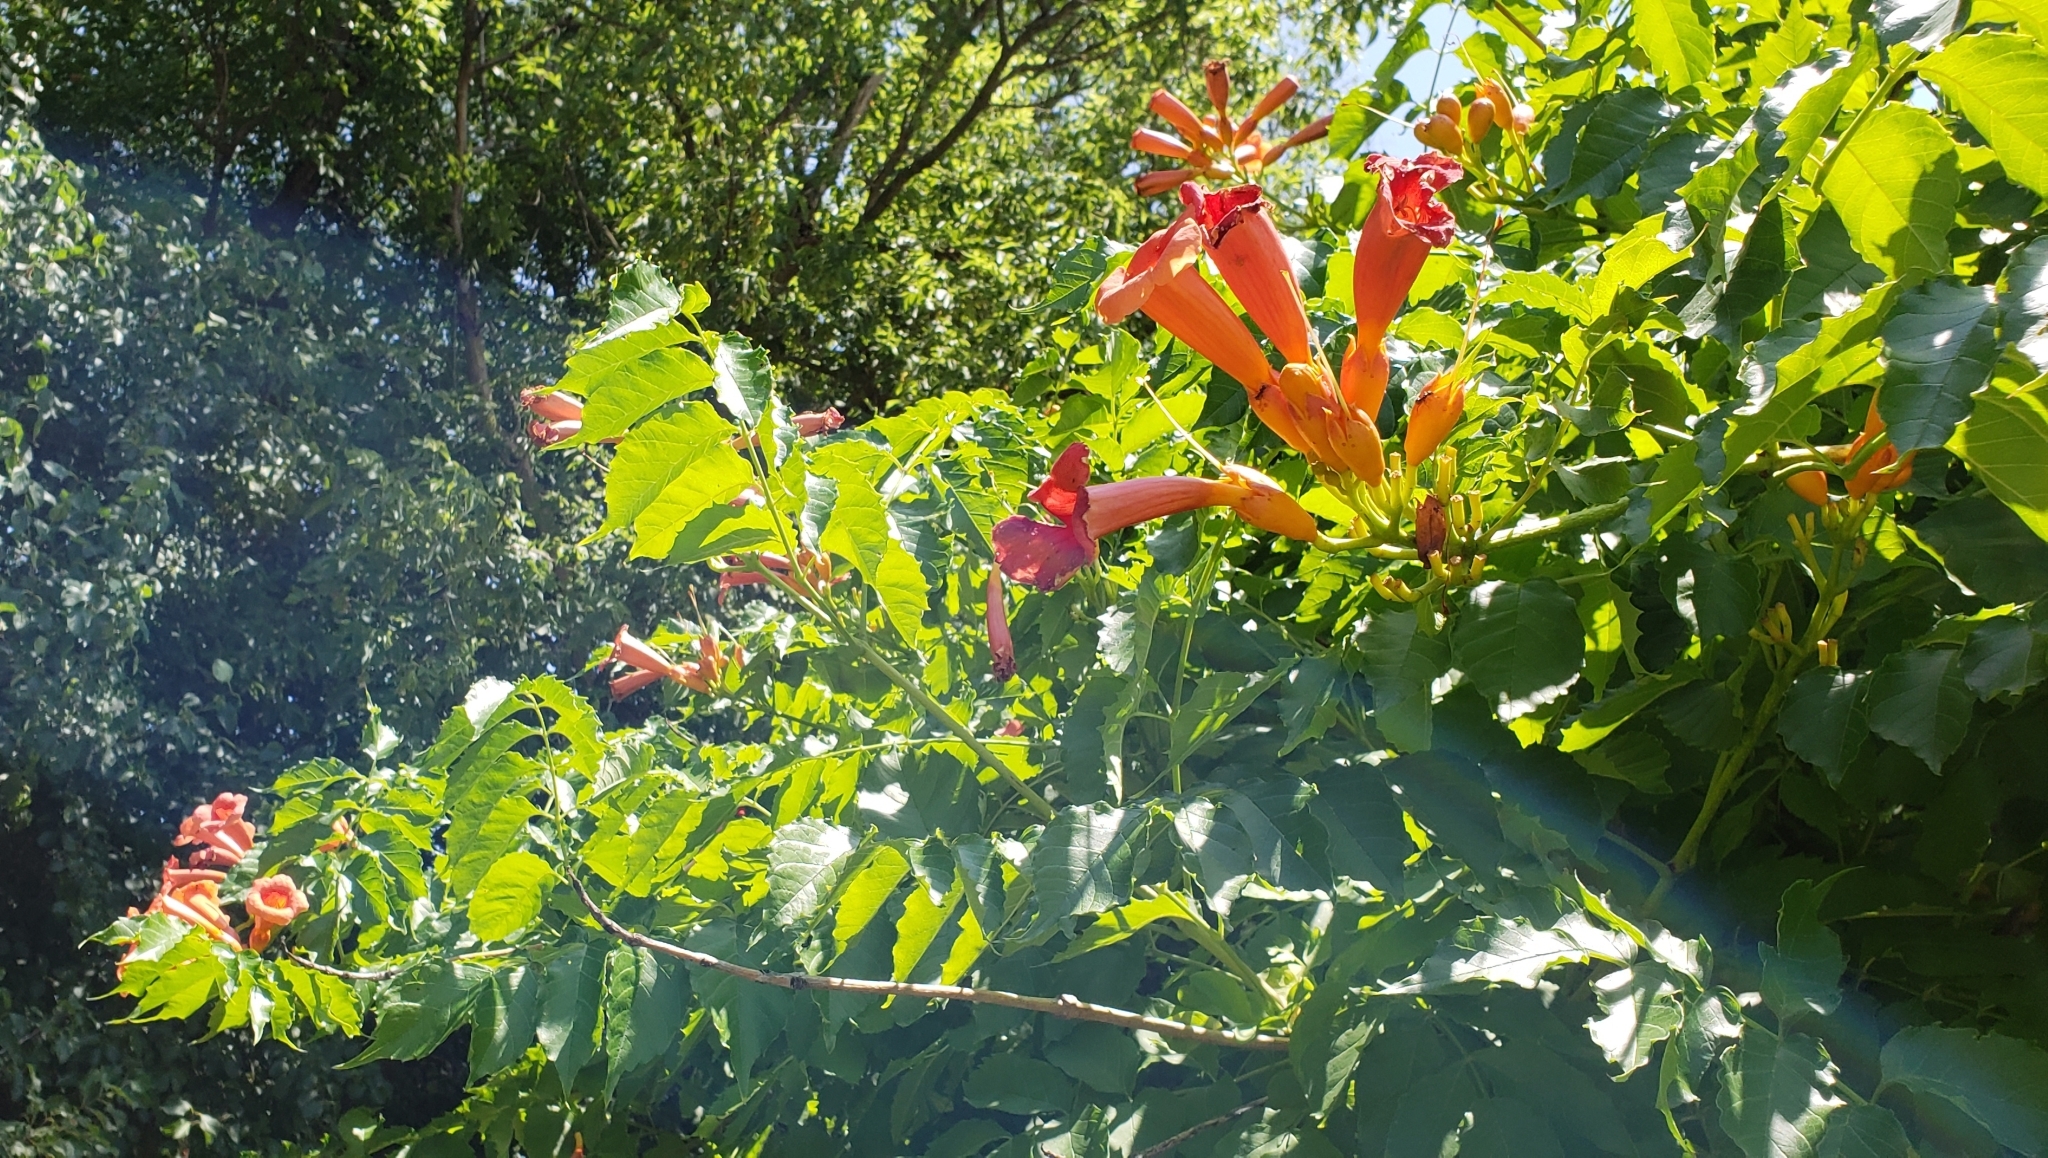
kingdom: Plantae
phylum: Tracheophyta
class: Magnoliopsida
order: Lamiales
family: Bignoniaceae
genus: Campsis
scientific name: Campsis radicans
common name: Trumpet-creeper
